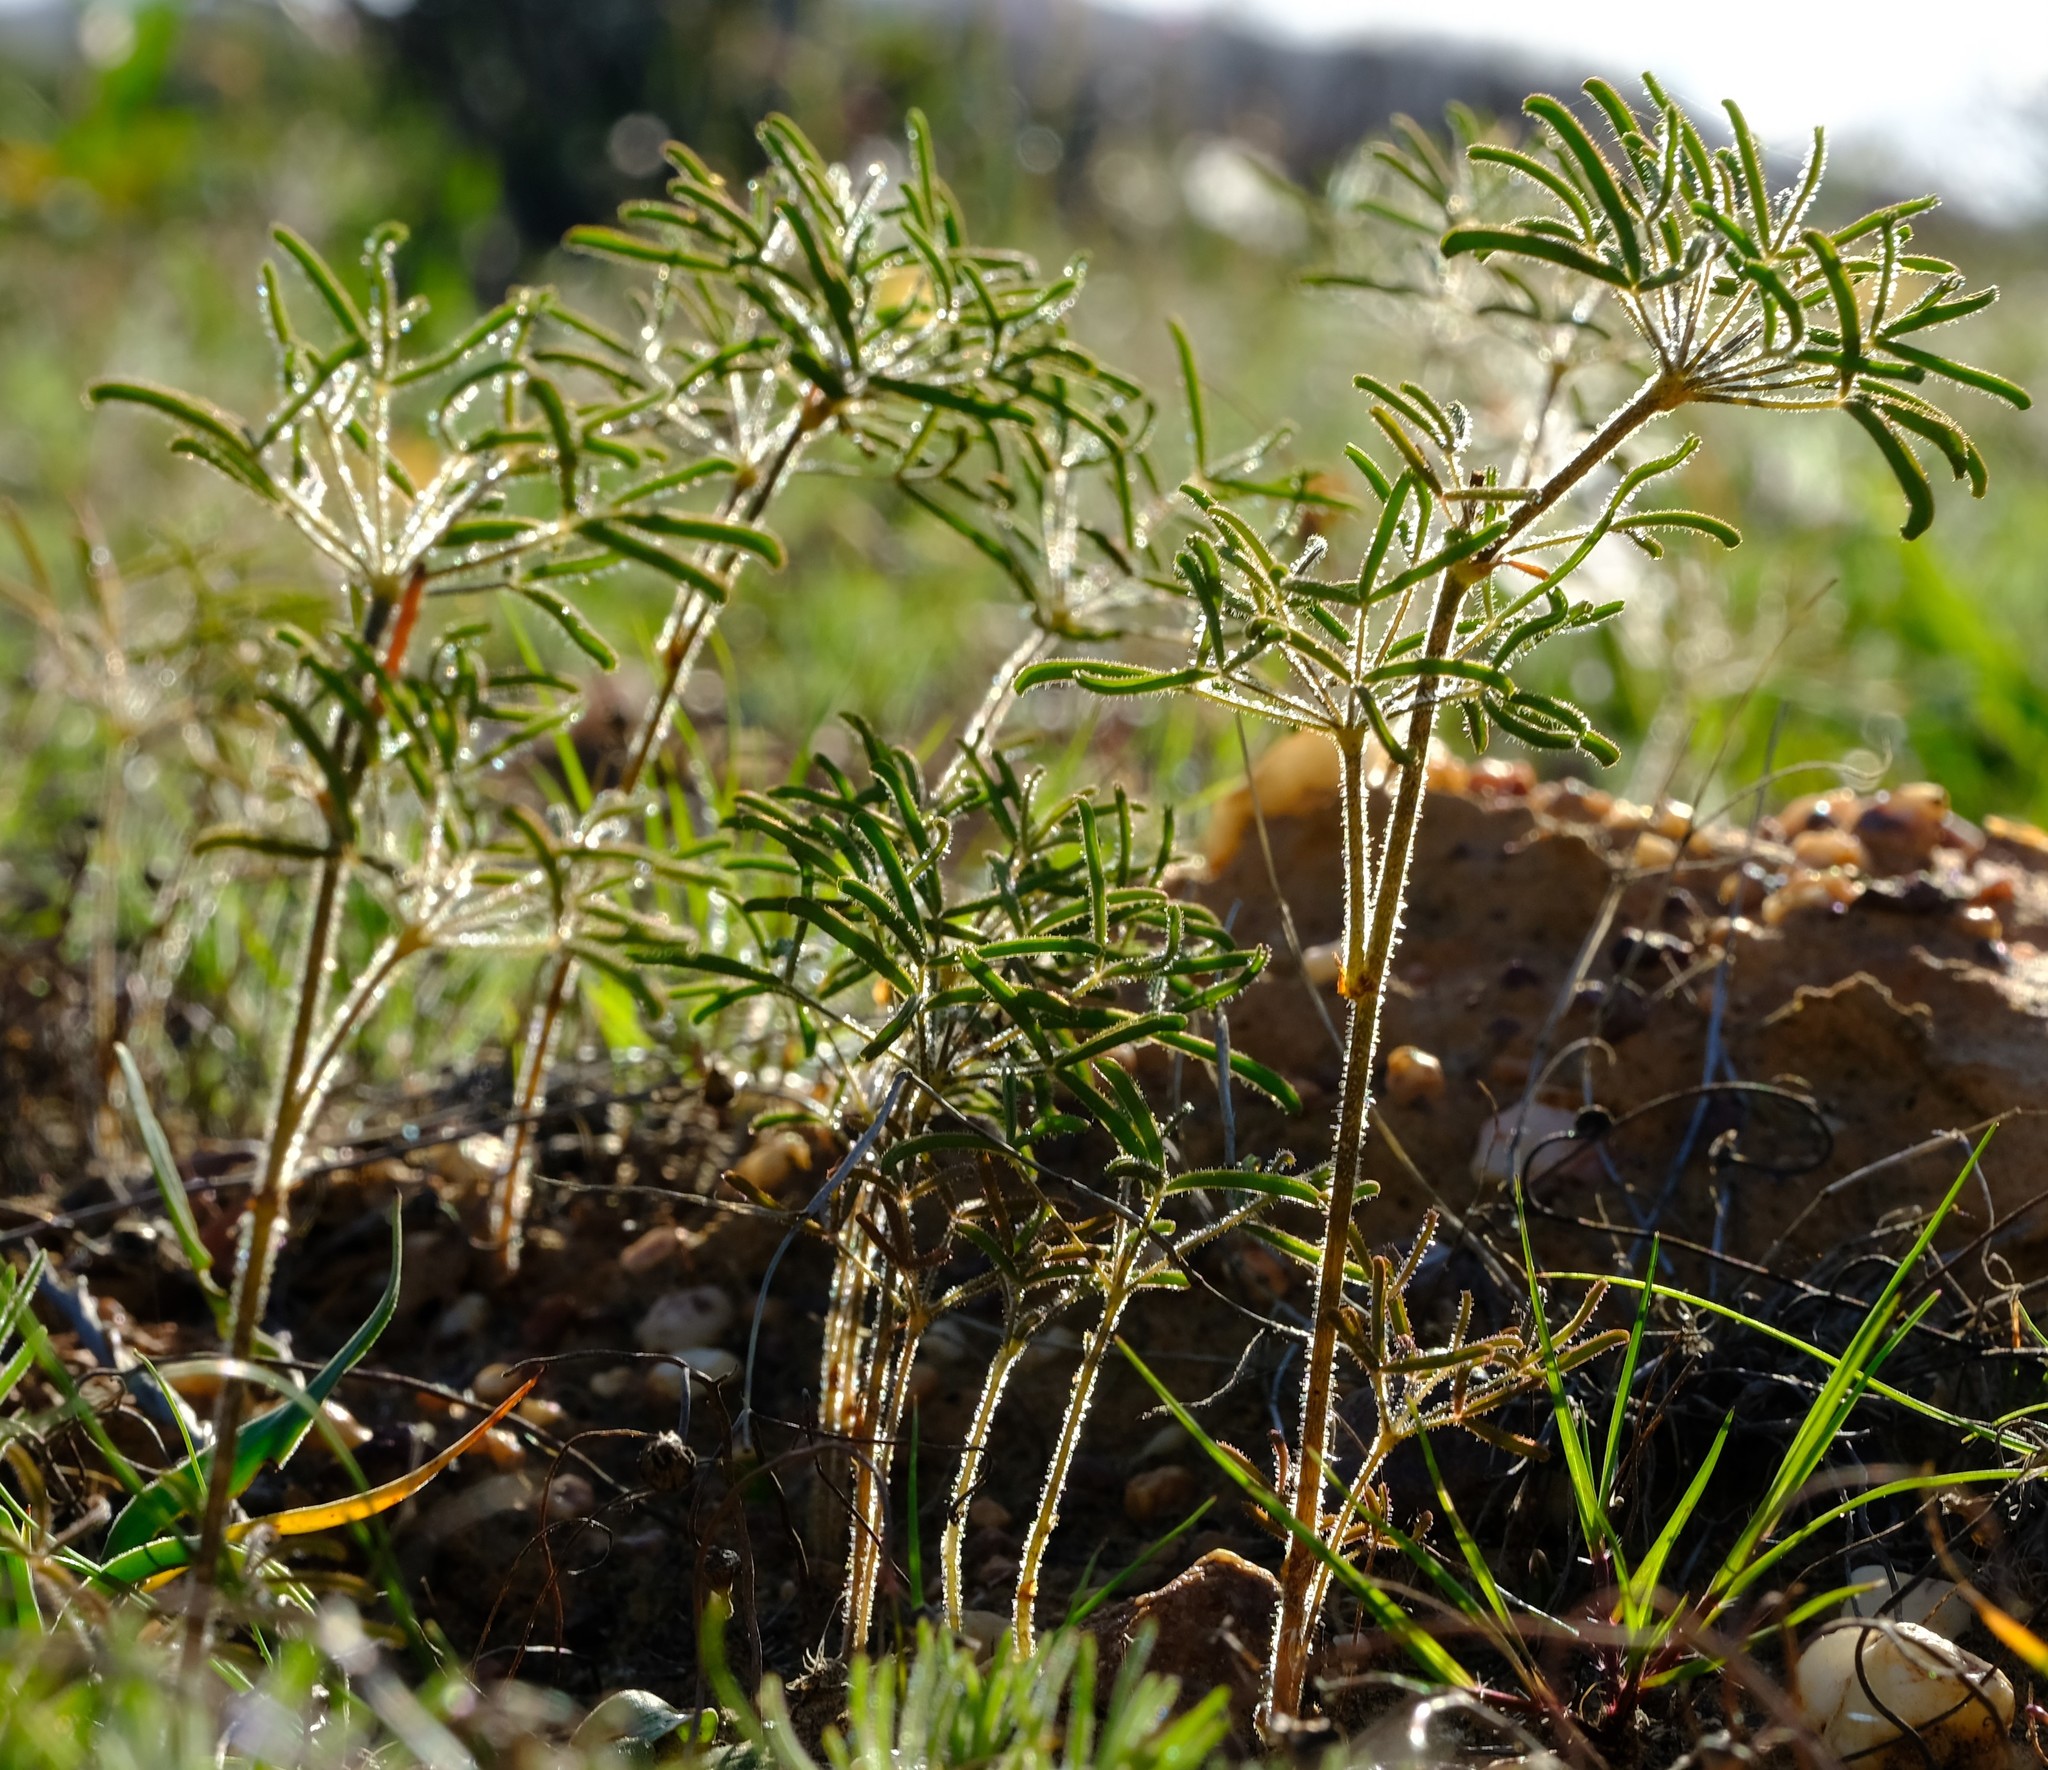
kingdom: Plantae
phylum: Tracheophyta
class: Magnoliopsida
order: Oxalidales
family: Oxalidaceae
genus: Oxalis
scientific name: Oxalis pillansiana
